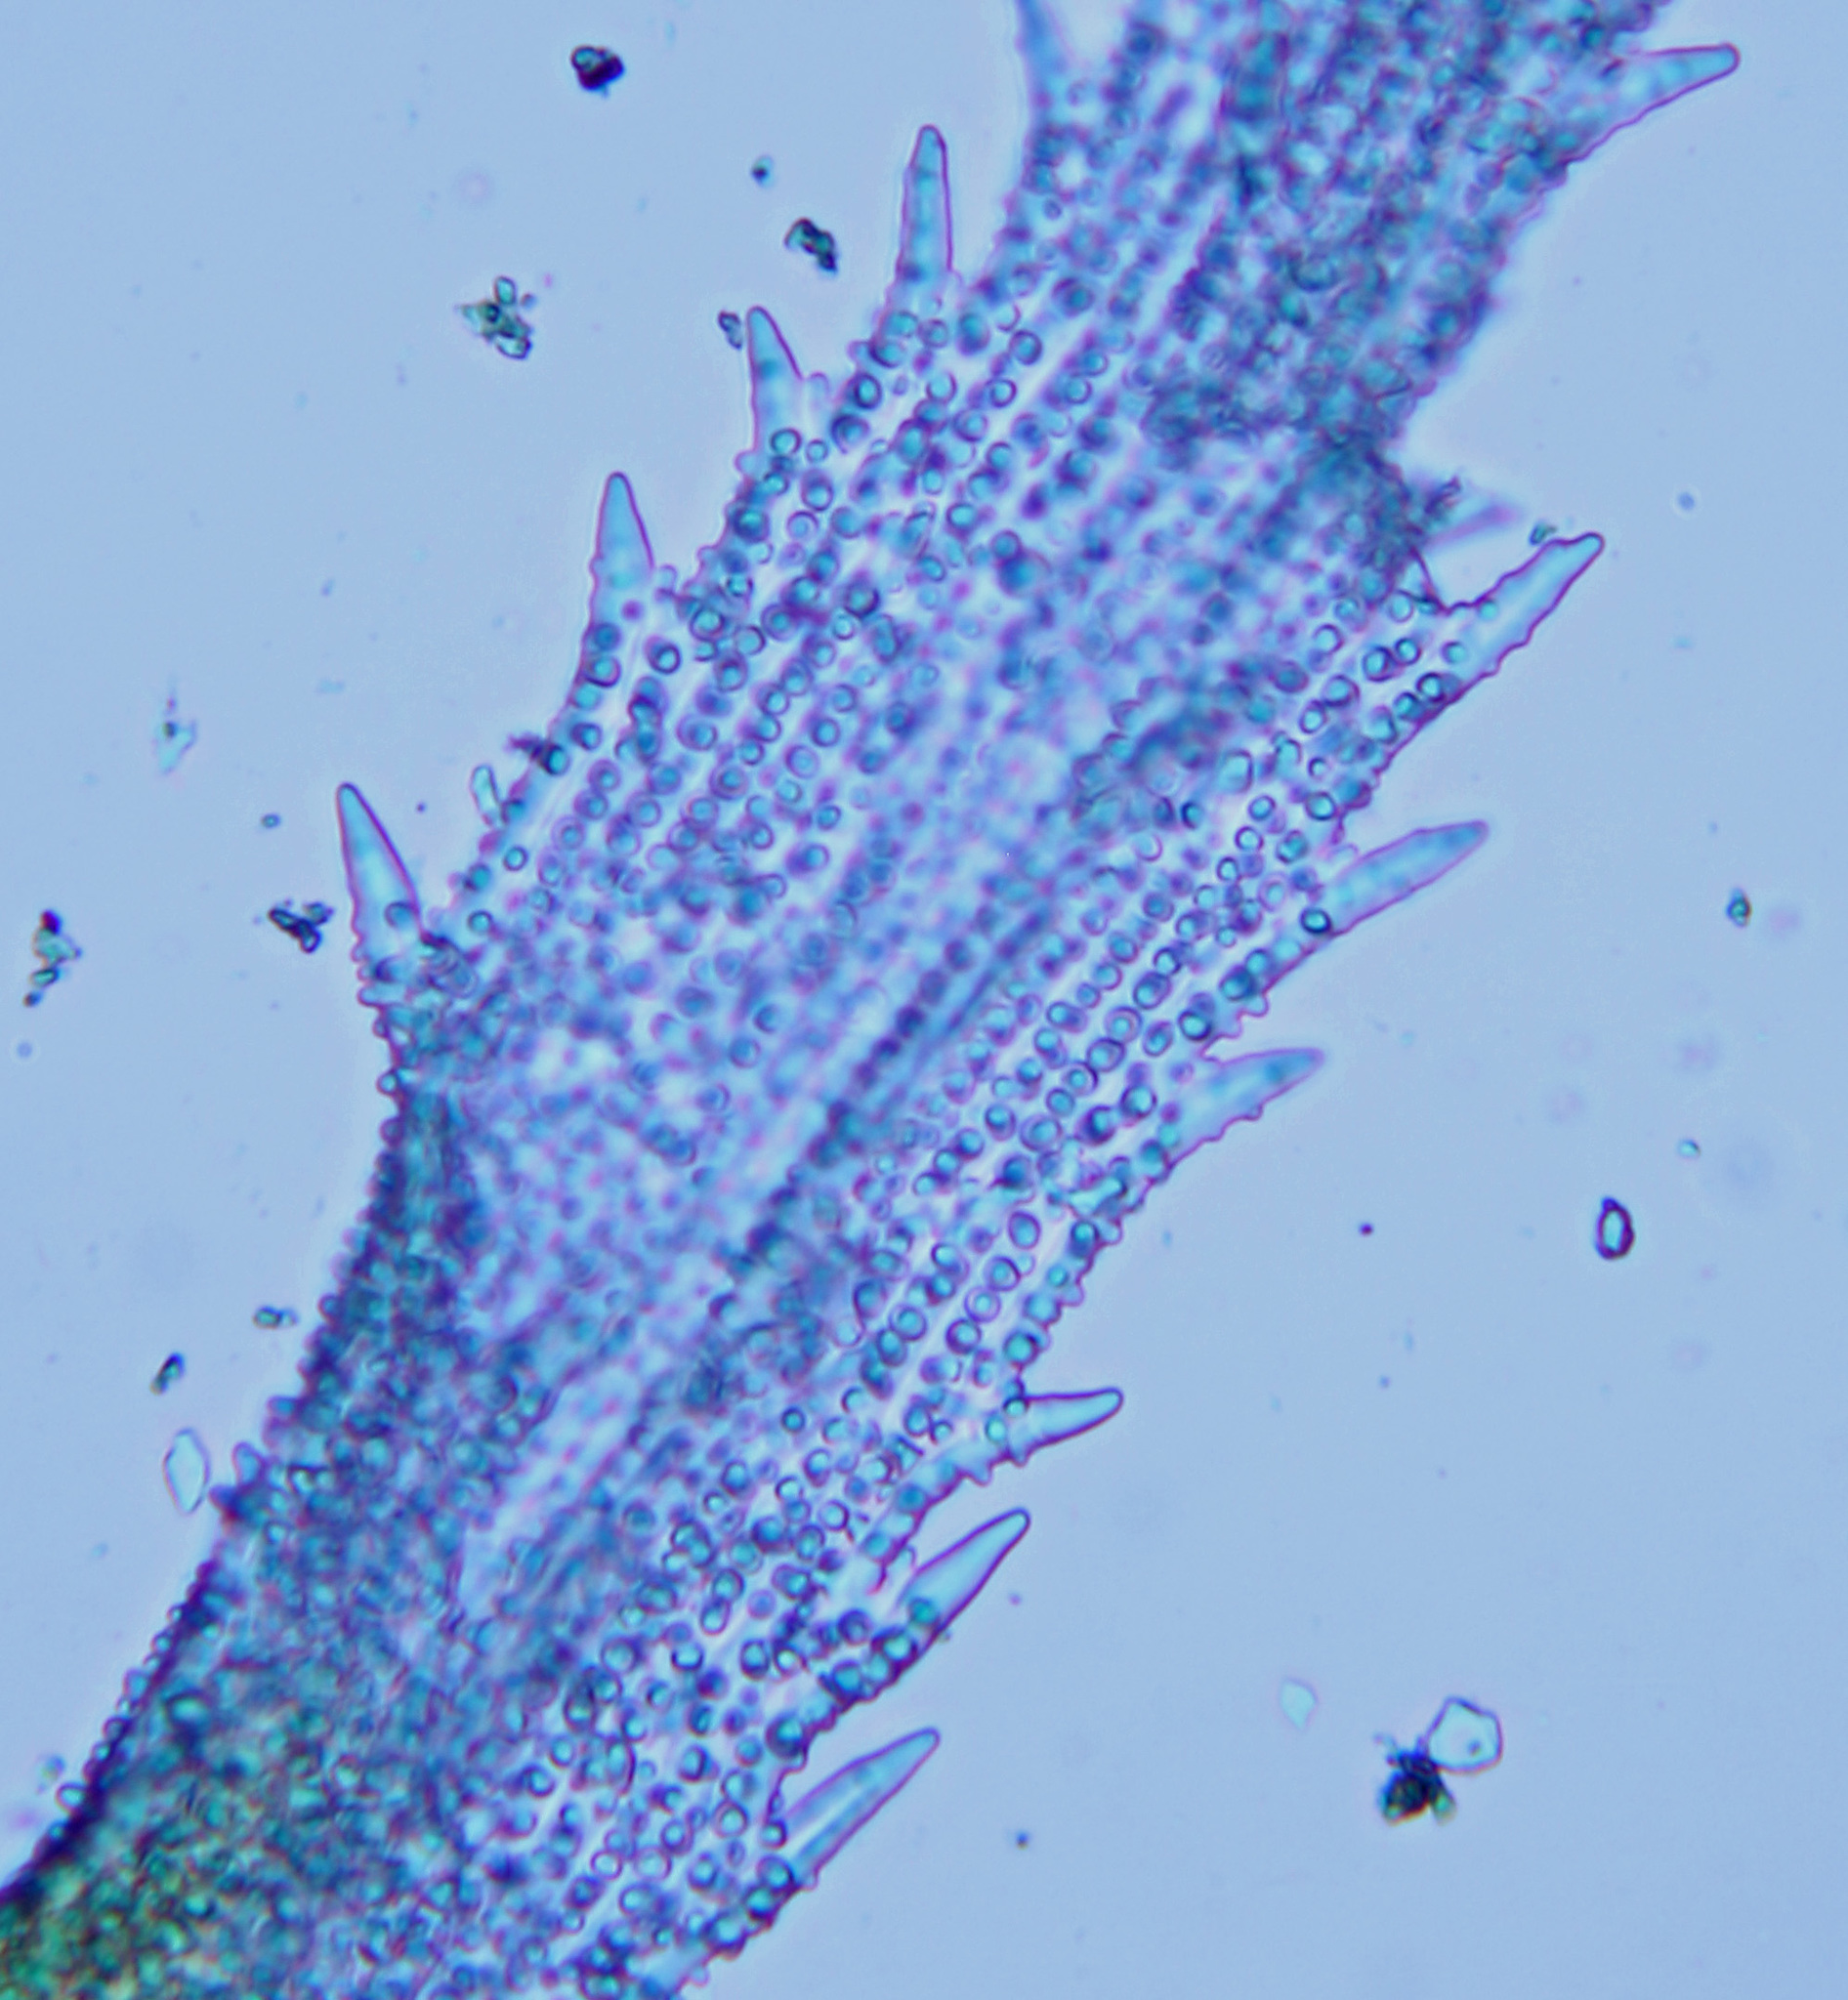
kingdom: Plantae
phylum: Bryophyta
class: Bryopsida
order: Grimmiales
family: Grimmiaceae
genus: Racomitrium
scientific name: Racomitrium pruinosum
